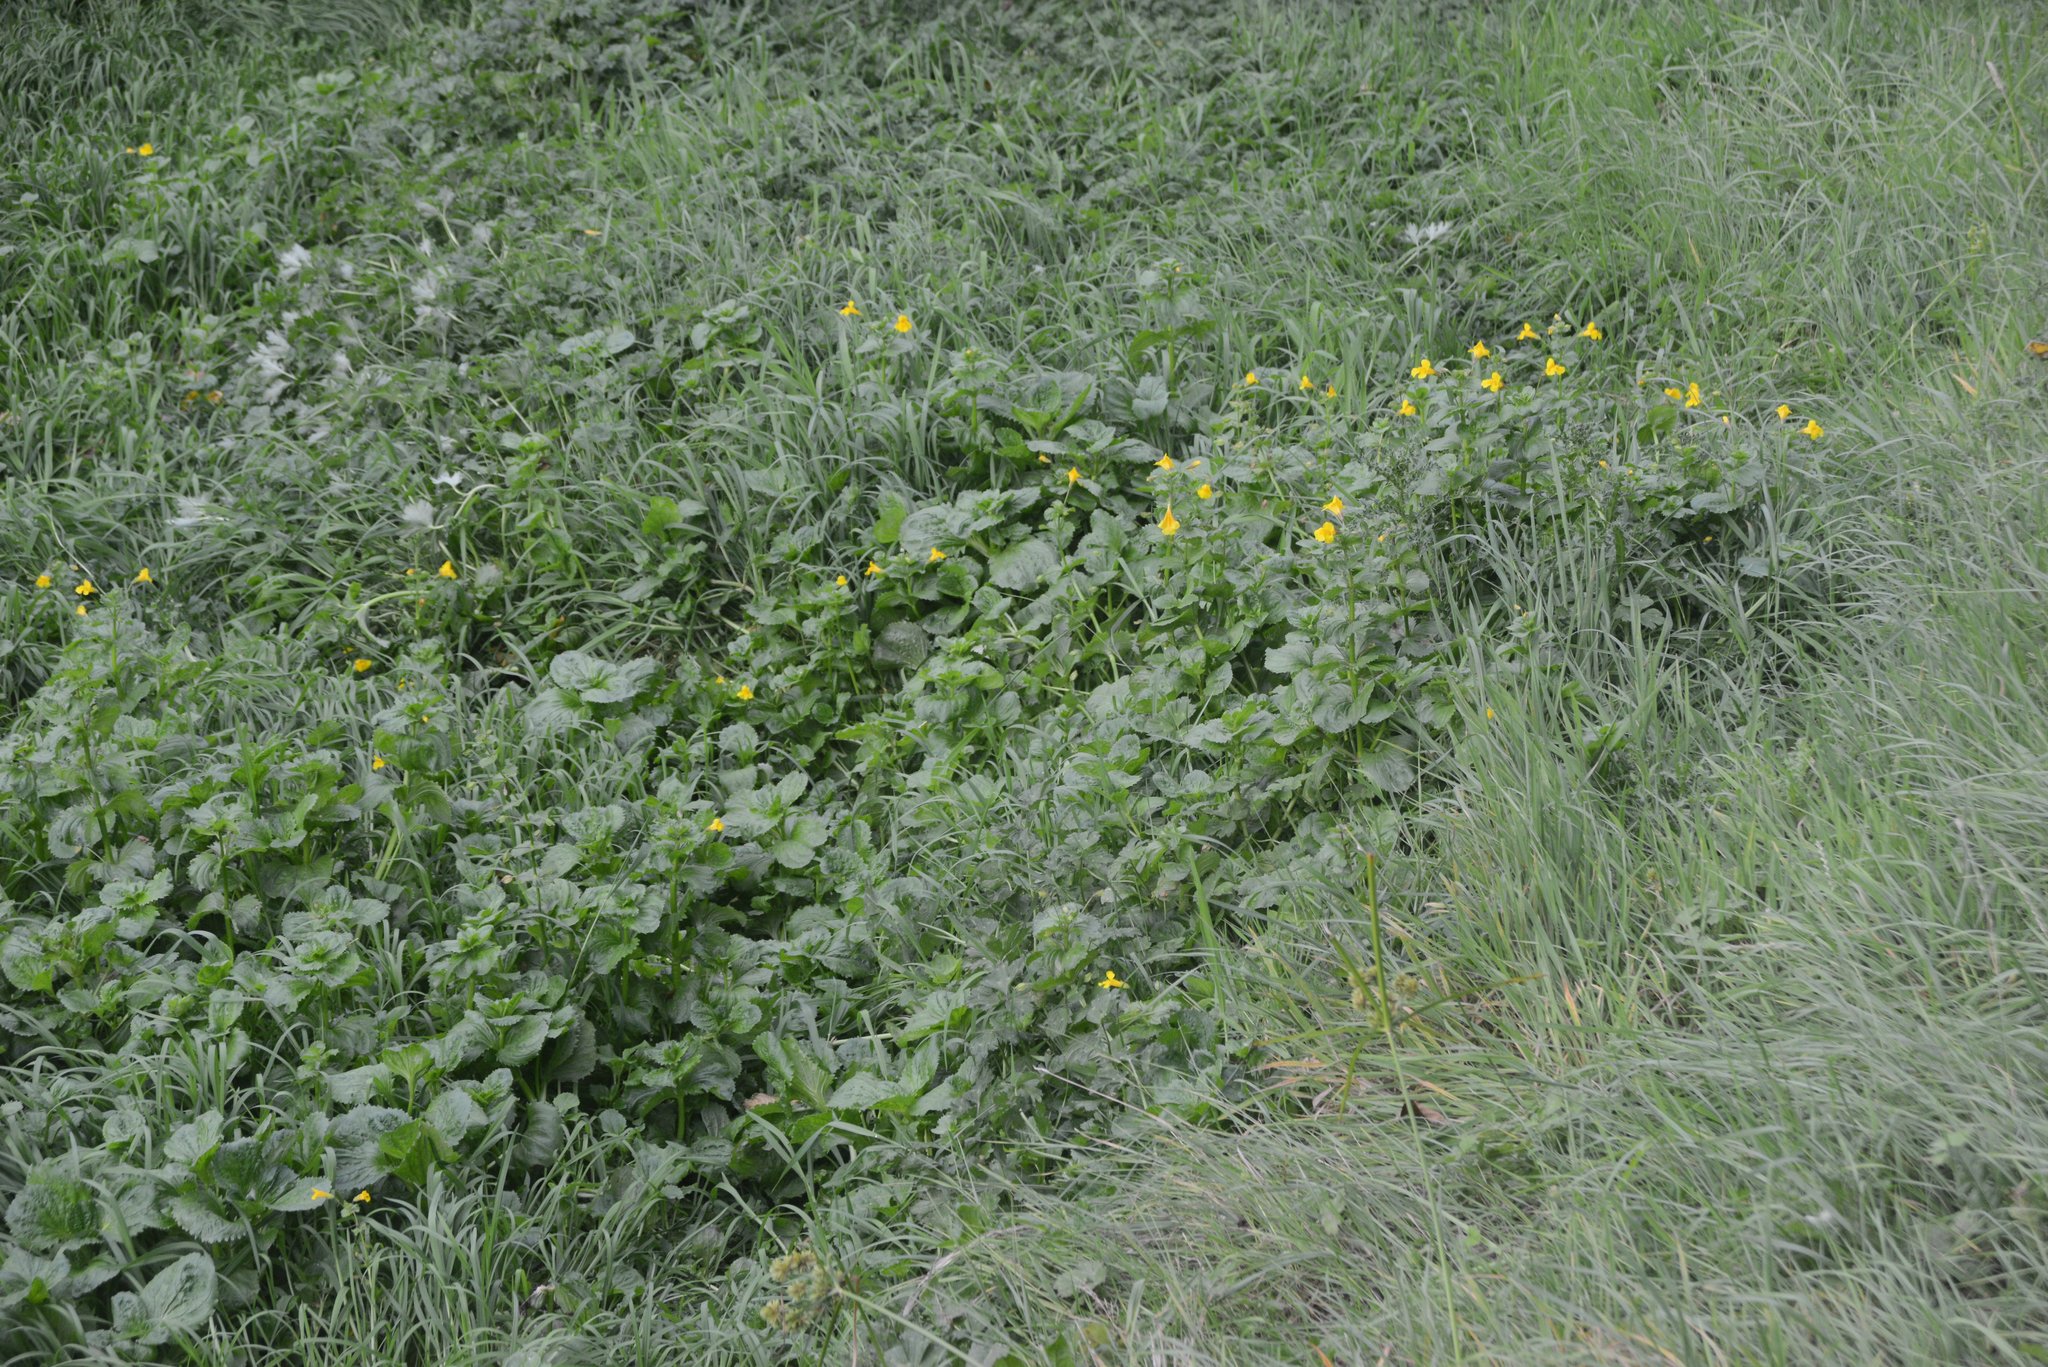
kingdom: Plantae
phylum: Tracheophyta
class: Magnoliopsida
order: Lamiales
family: Phrymaceae
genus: Erythranthe
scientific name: Erythranthe guttata
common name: Monkeyflower
